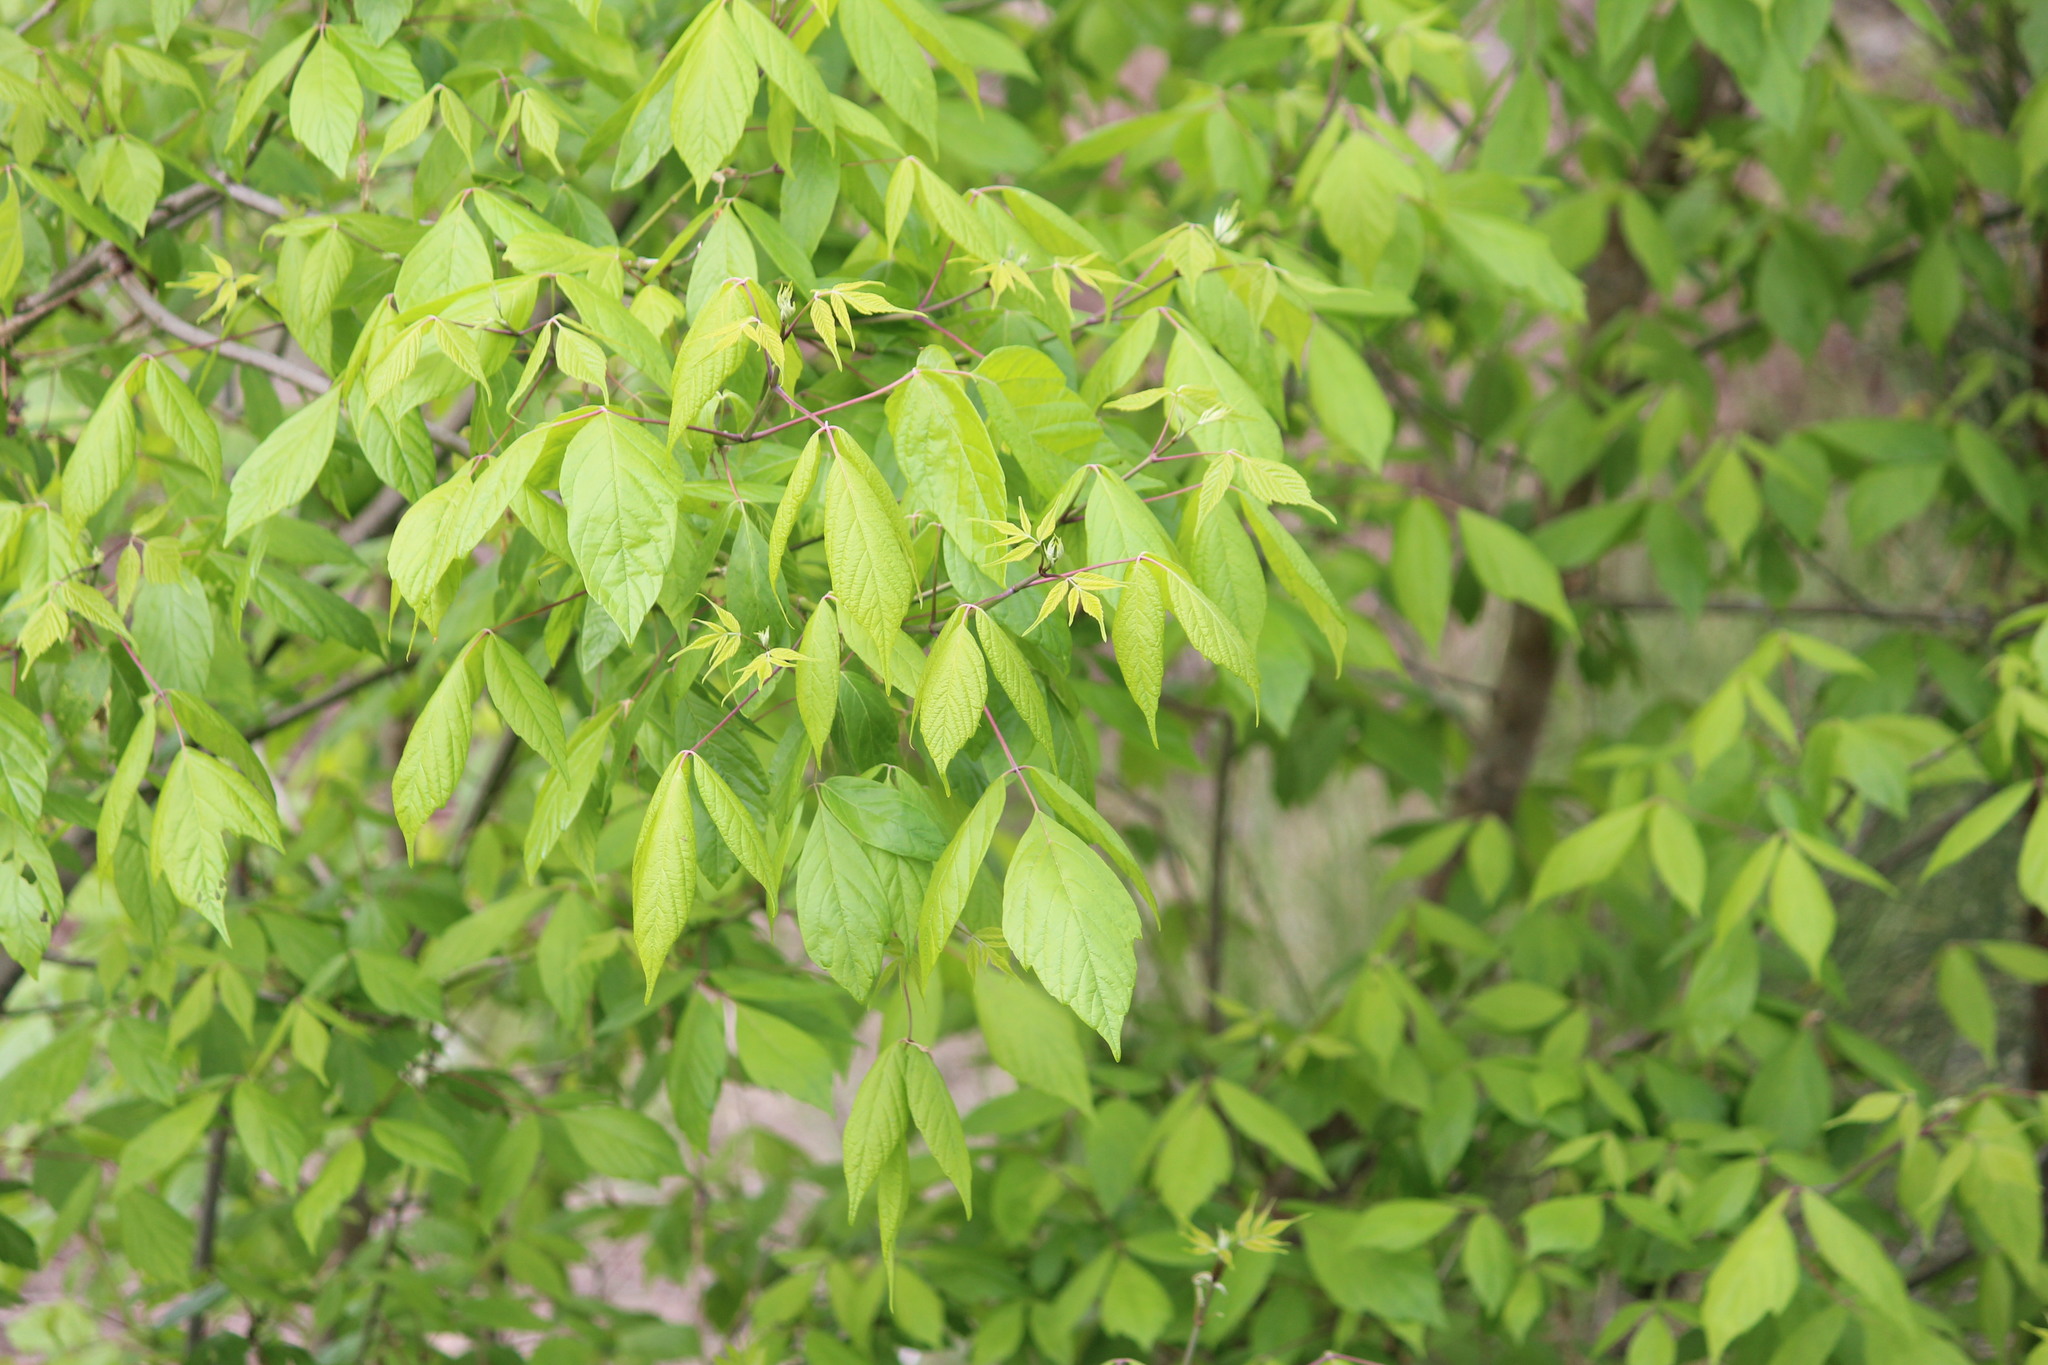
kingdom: Plantae
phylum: Tracheophyta
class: Magnoliopsida
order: Sapindales
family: Sapindaceae
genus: Acer
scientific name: Acer negundo
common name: Ashleaf maple
